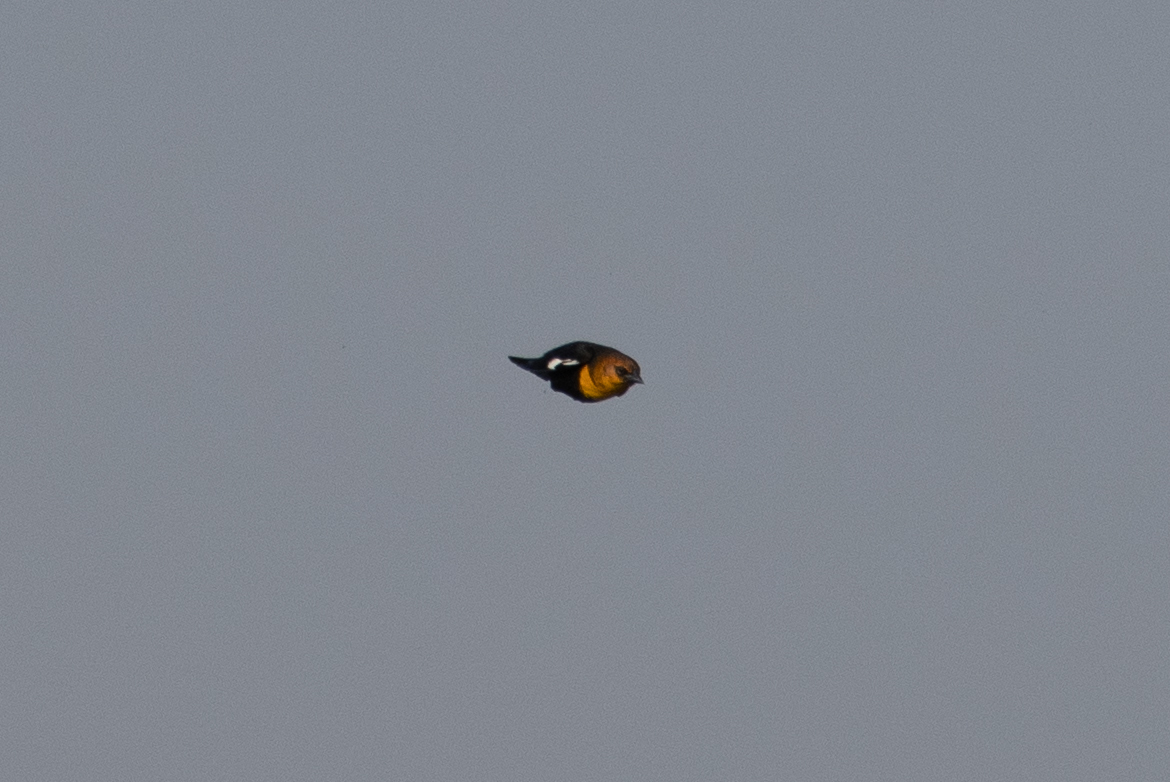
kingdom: Animalia
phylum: Chordata
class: Aves
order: Passeriformes
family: Icteridae
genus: Xanthocephalus
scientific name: Xanthocephalus xanthocephalus
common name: Yellow-headed blackbird
